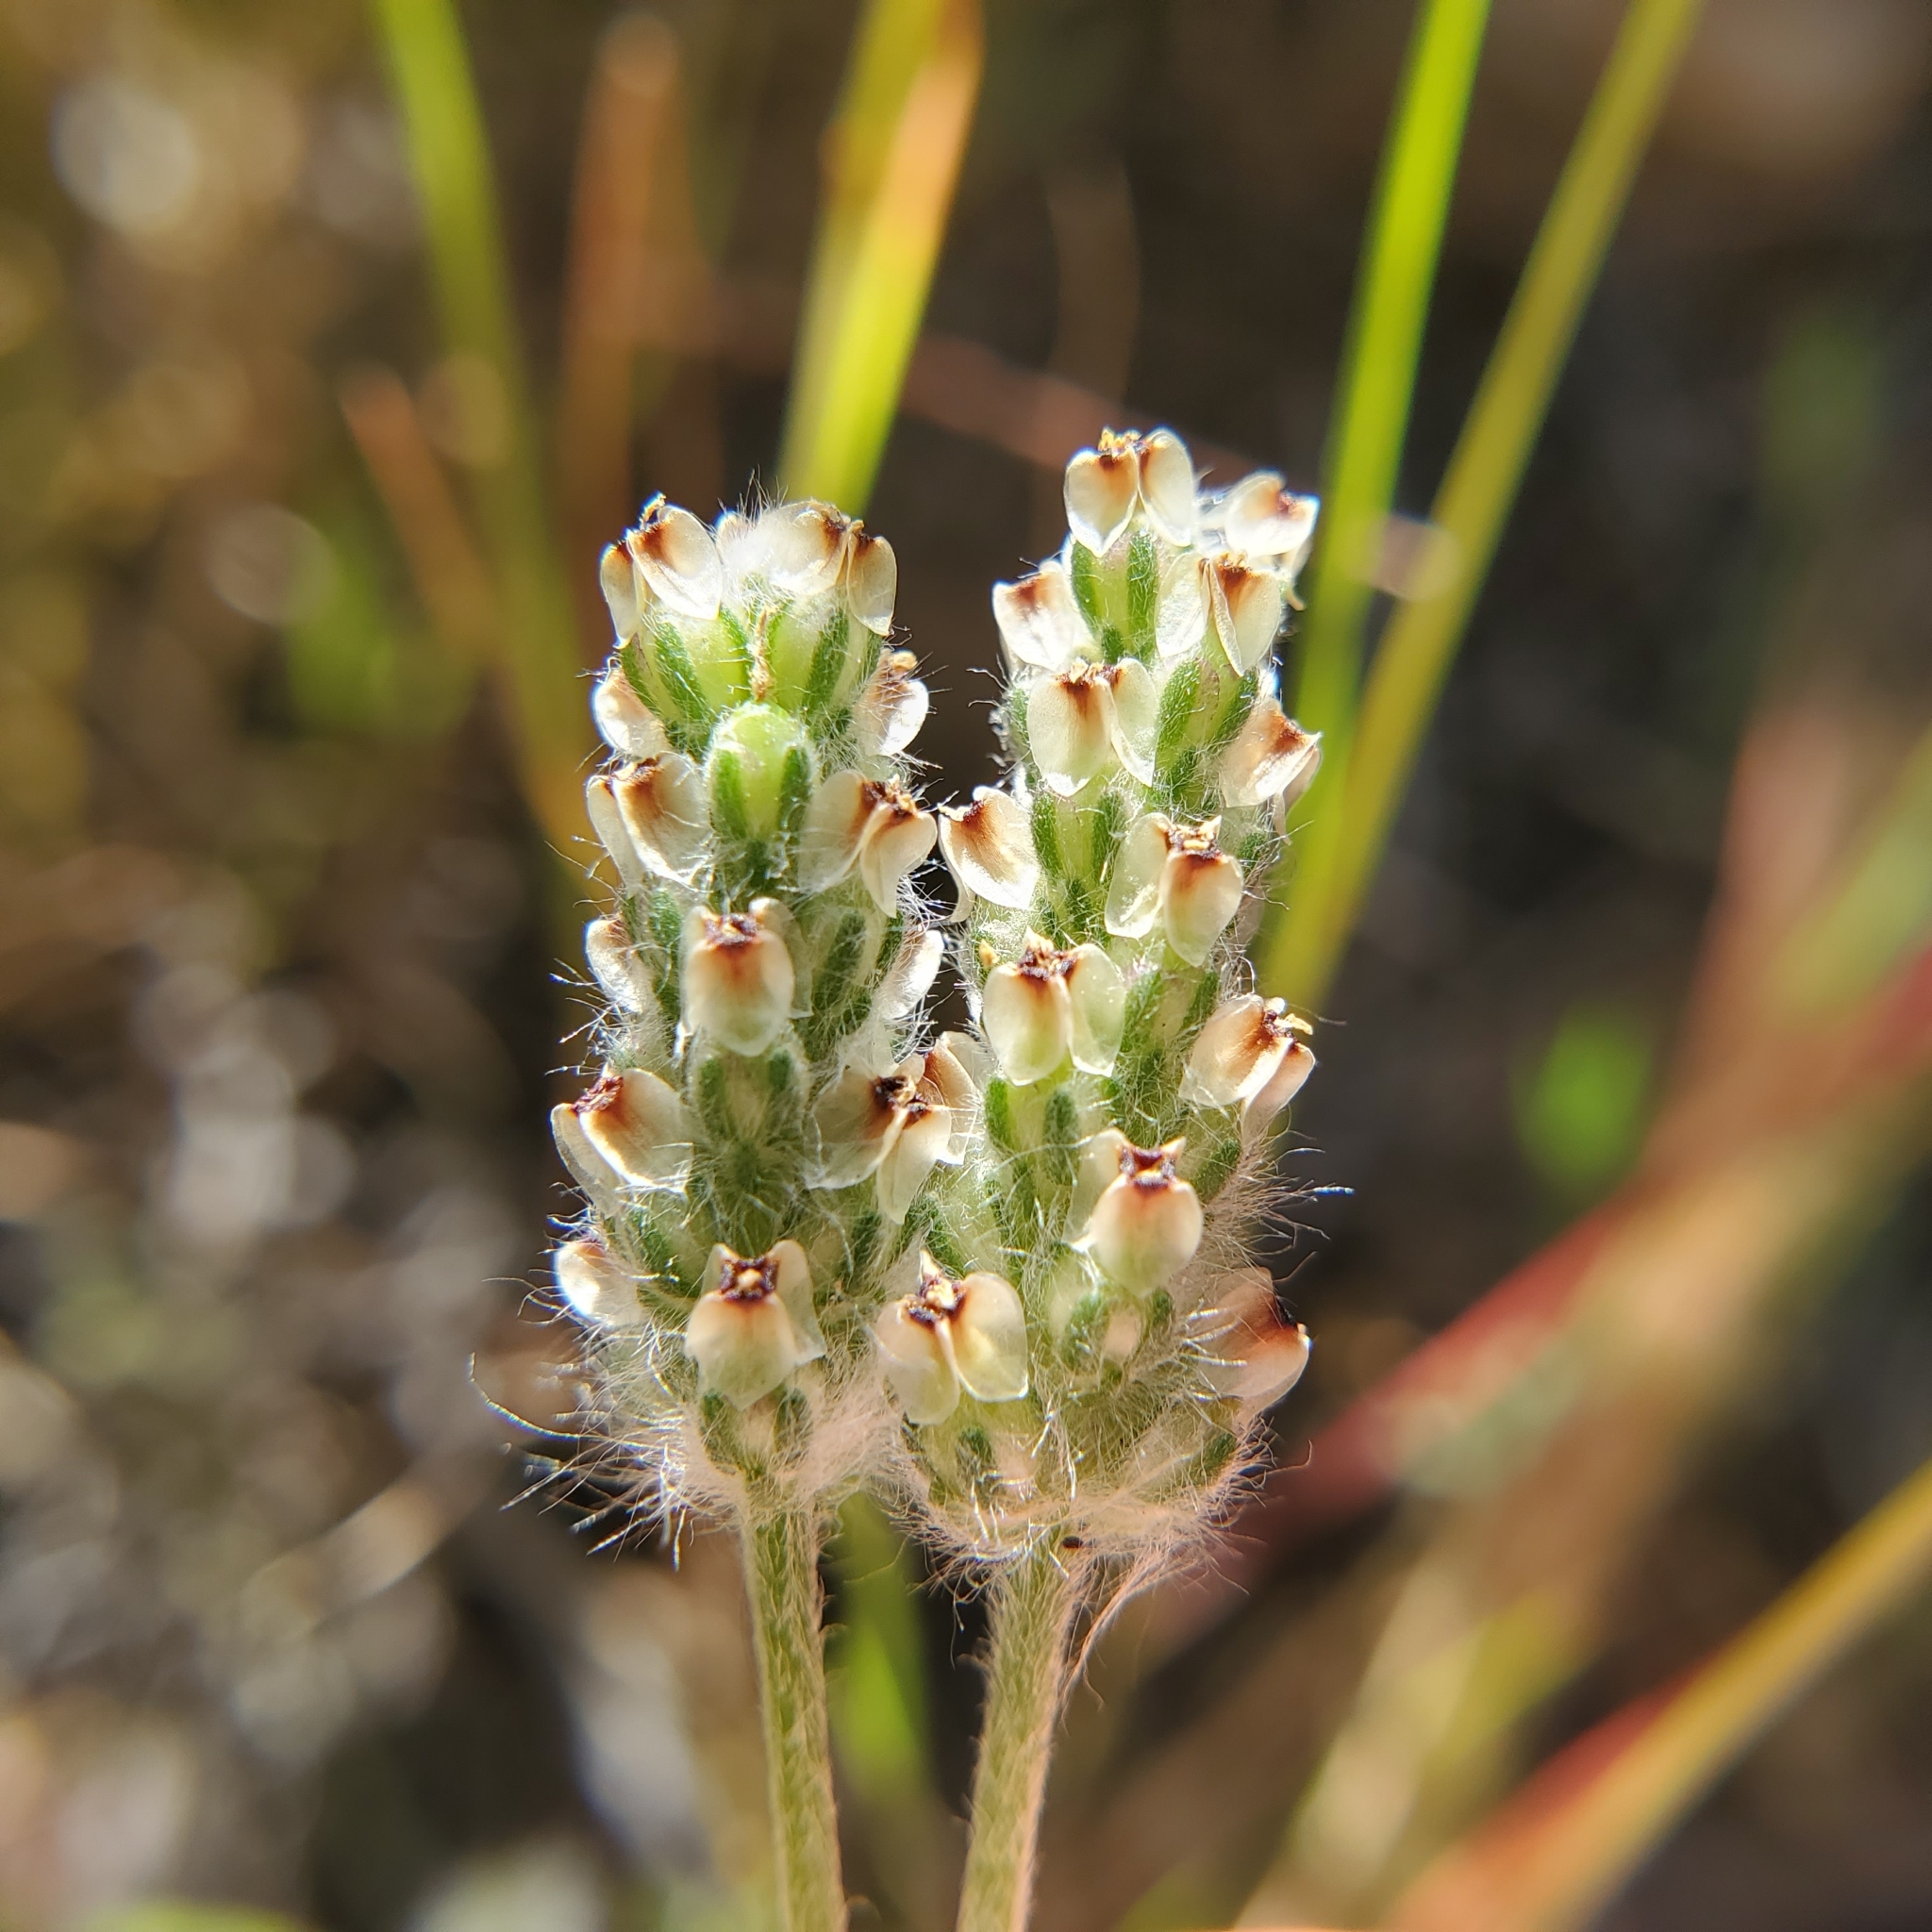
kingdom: Plantae
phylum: Tracheophyta
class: Magnoliopsida
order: Lamiales
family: Plantaginaceae
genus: Plantago
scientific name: Plantago erecta
